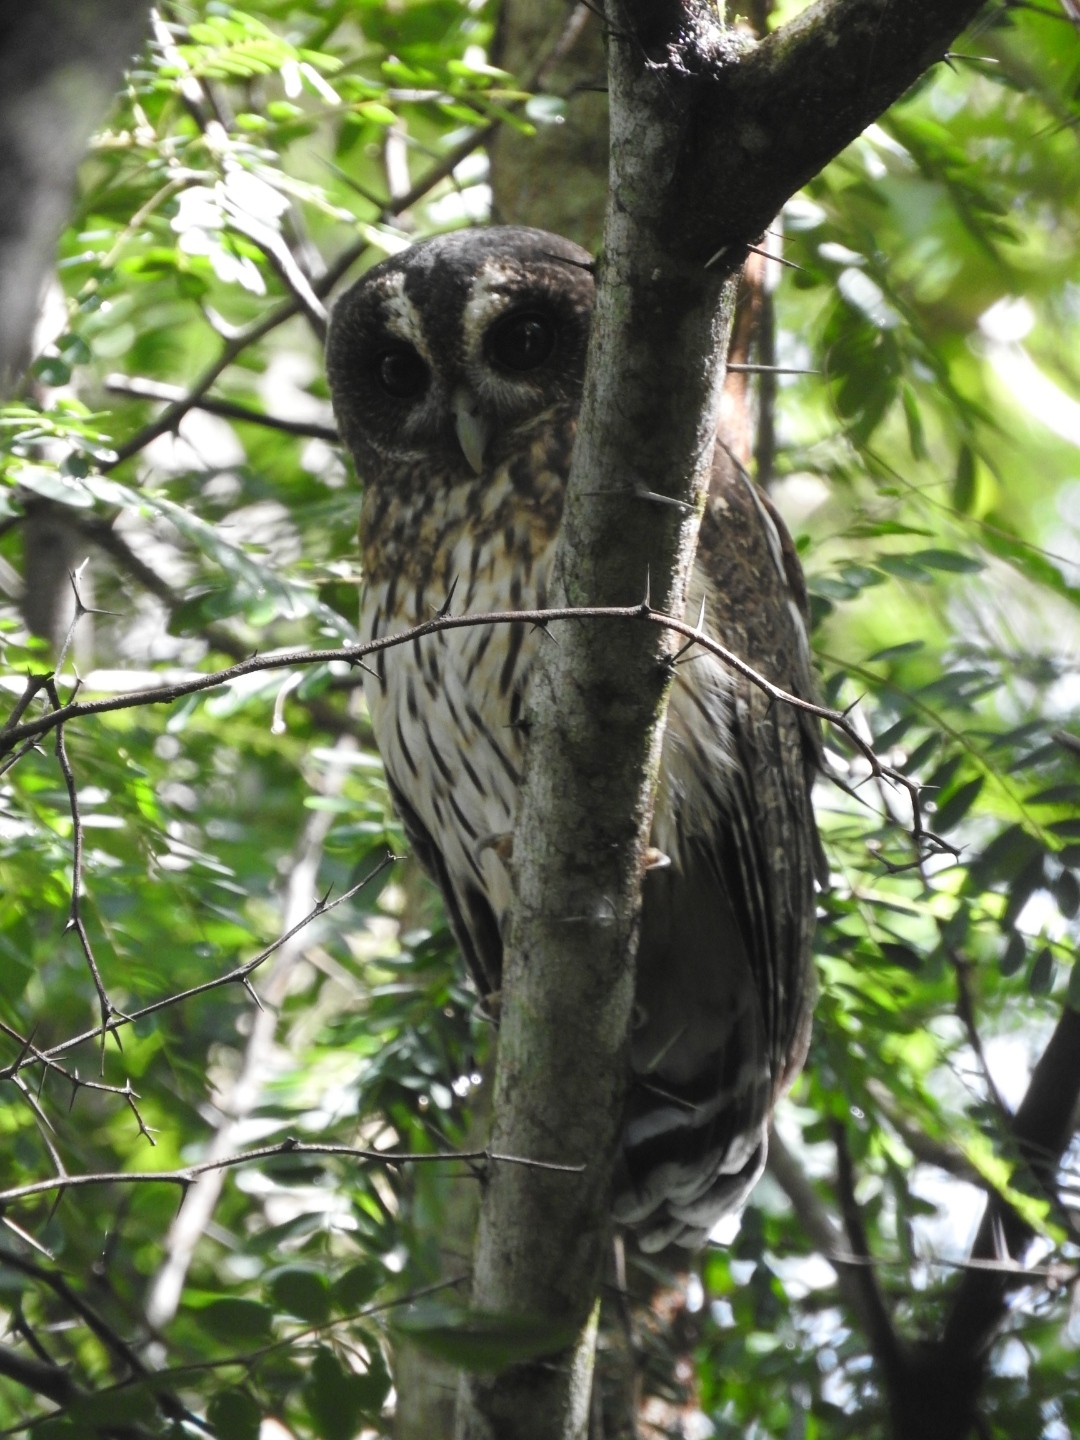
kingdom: Animalia
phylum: Chordata
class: Aves
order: Strigiformes
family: Strigidae
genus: Strix
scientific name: Strix virgata
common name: Mottled owl
